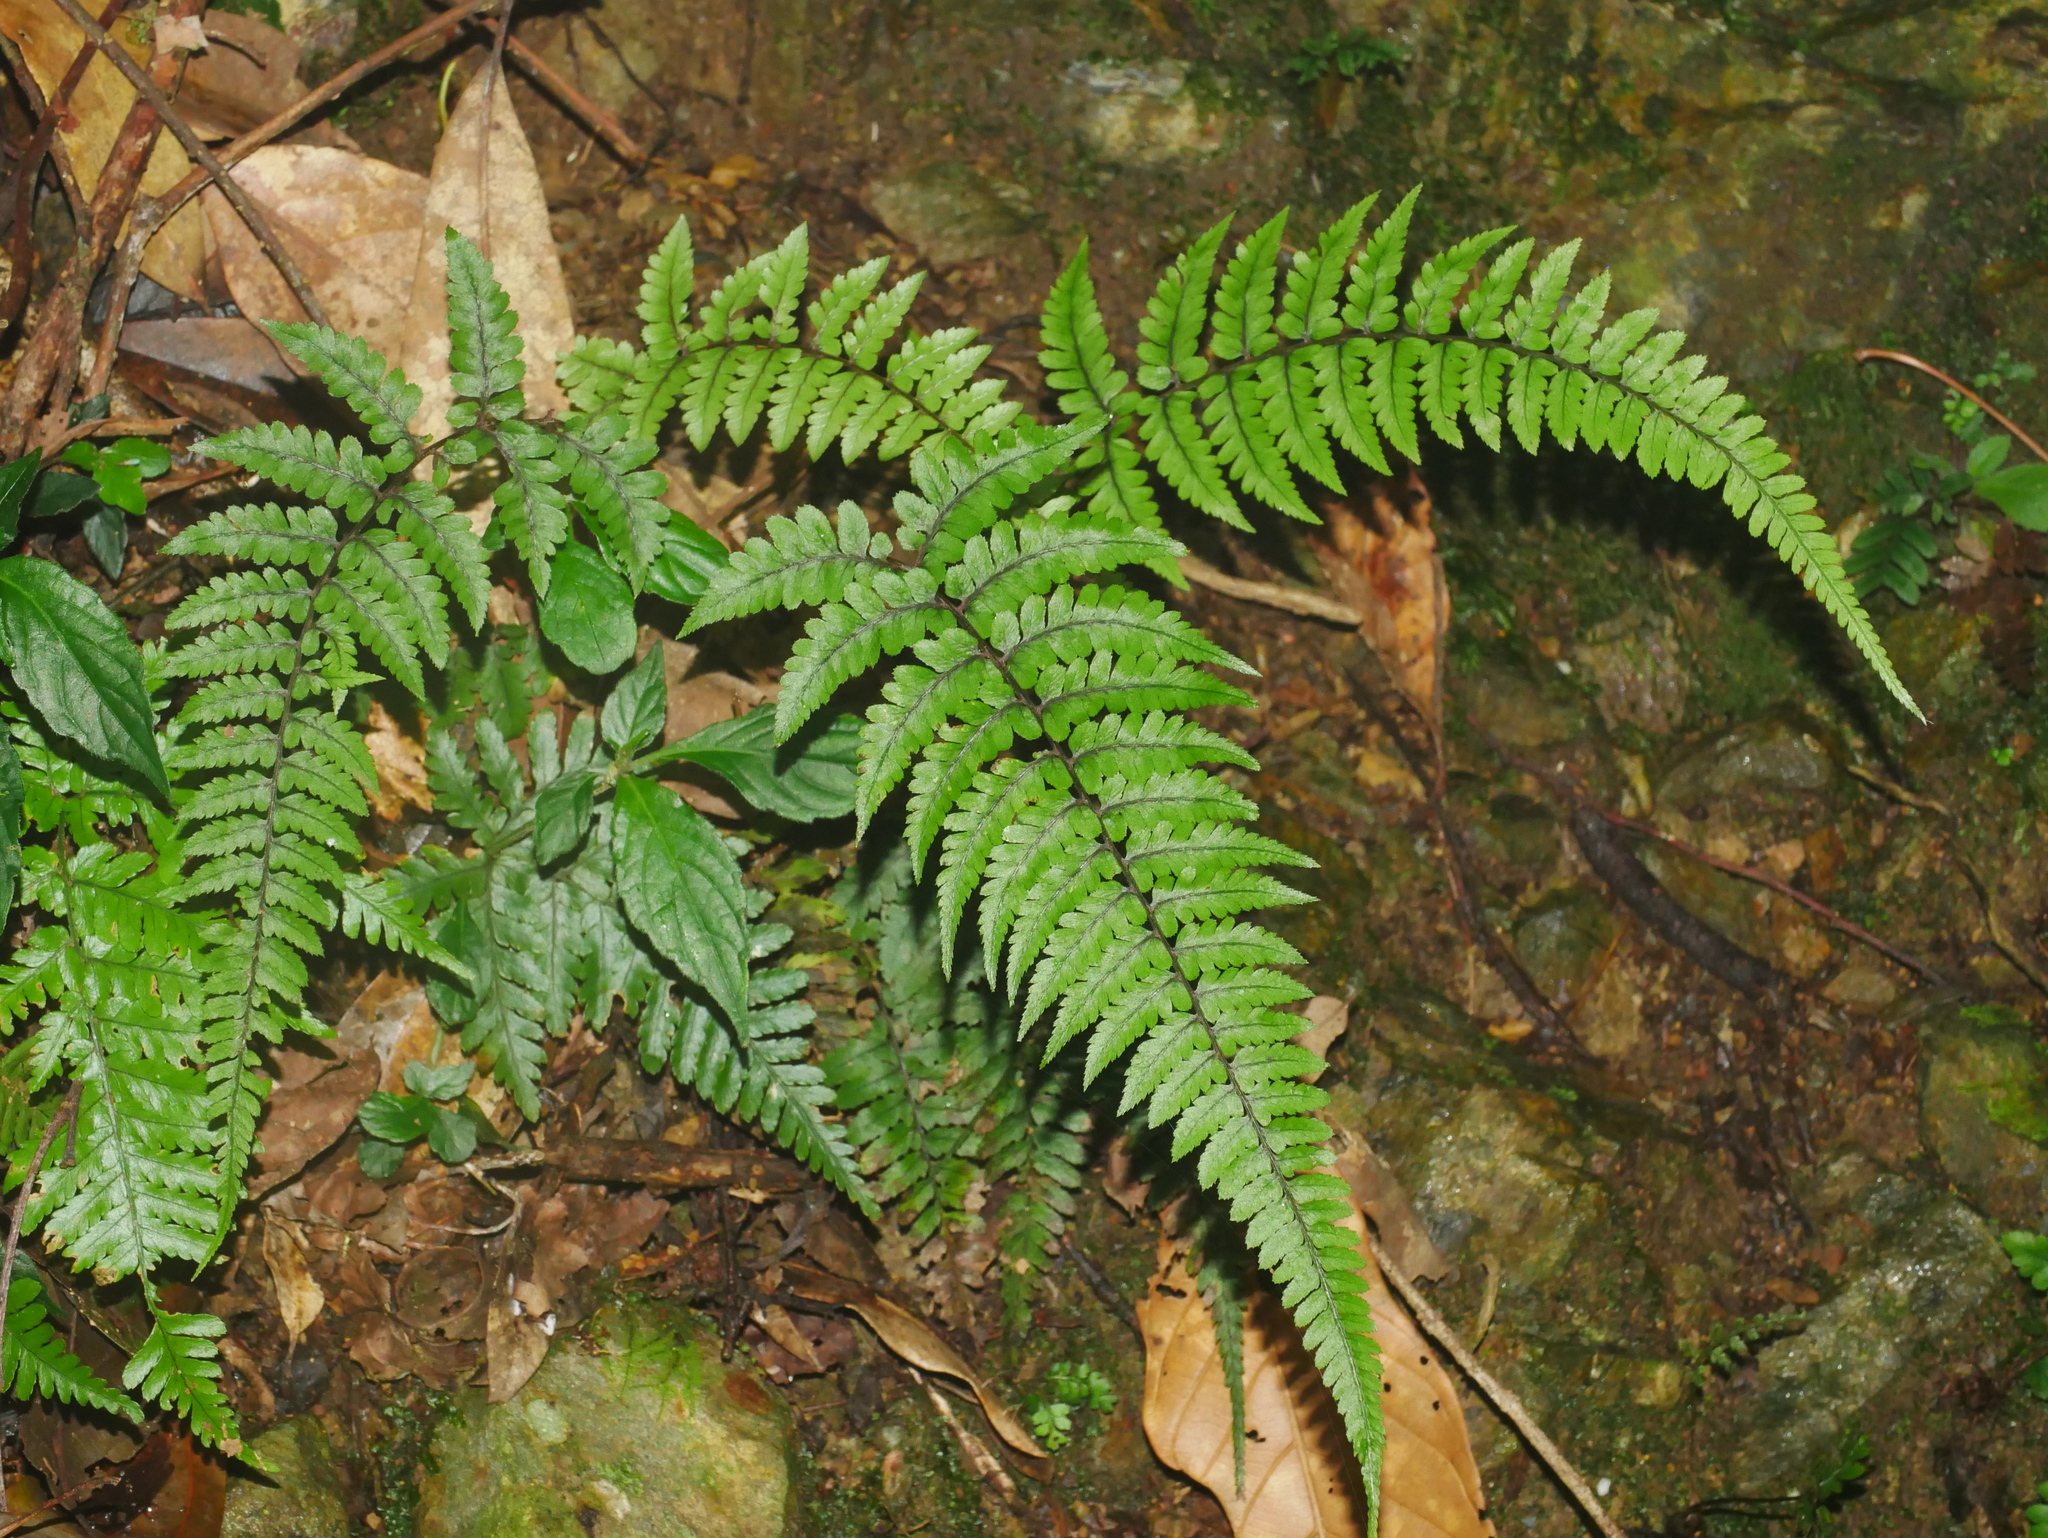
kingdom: Plantae
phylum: Tracheophyta
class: Polypodiopsida
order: Polypodiales
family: Athyriaceae
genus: Athyrium
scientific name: Athyrium leiopodum
